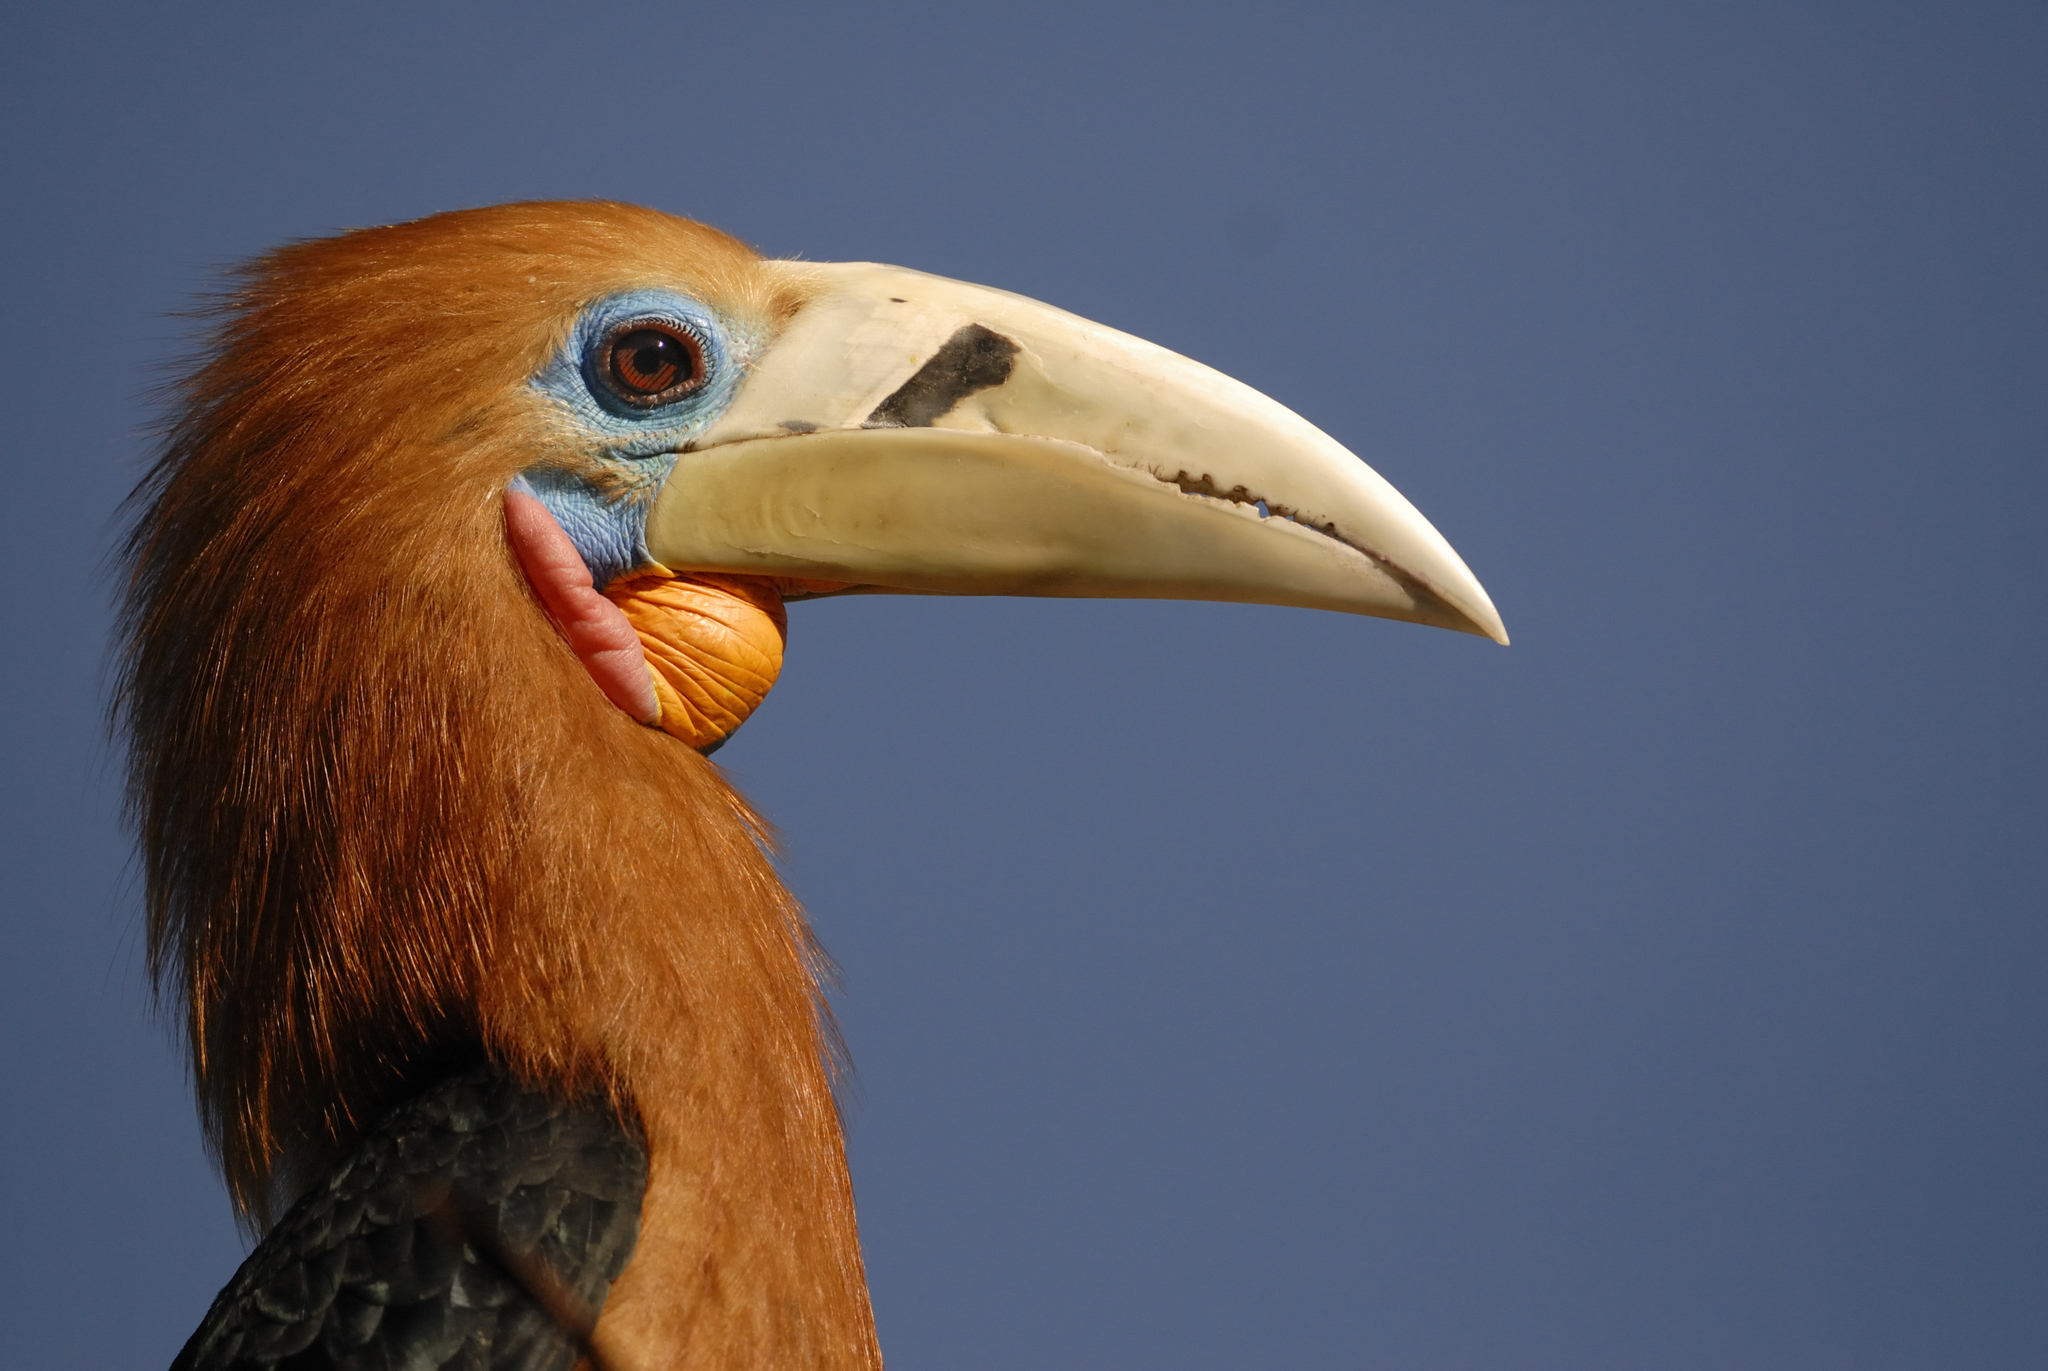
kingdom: Animalia
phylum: Chordata
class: Aves
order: Bucerotiformes
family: Bucerotidae
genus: Aceros
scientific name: Aceros nipalensis
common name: Rufous-necked hornbill
